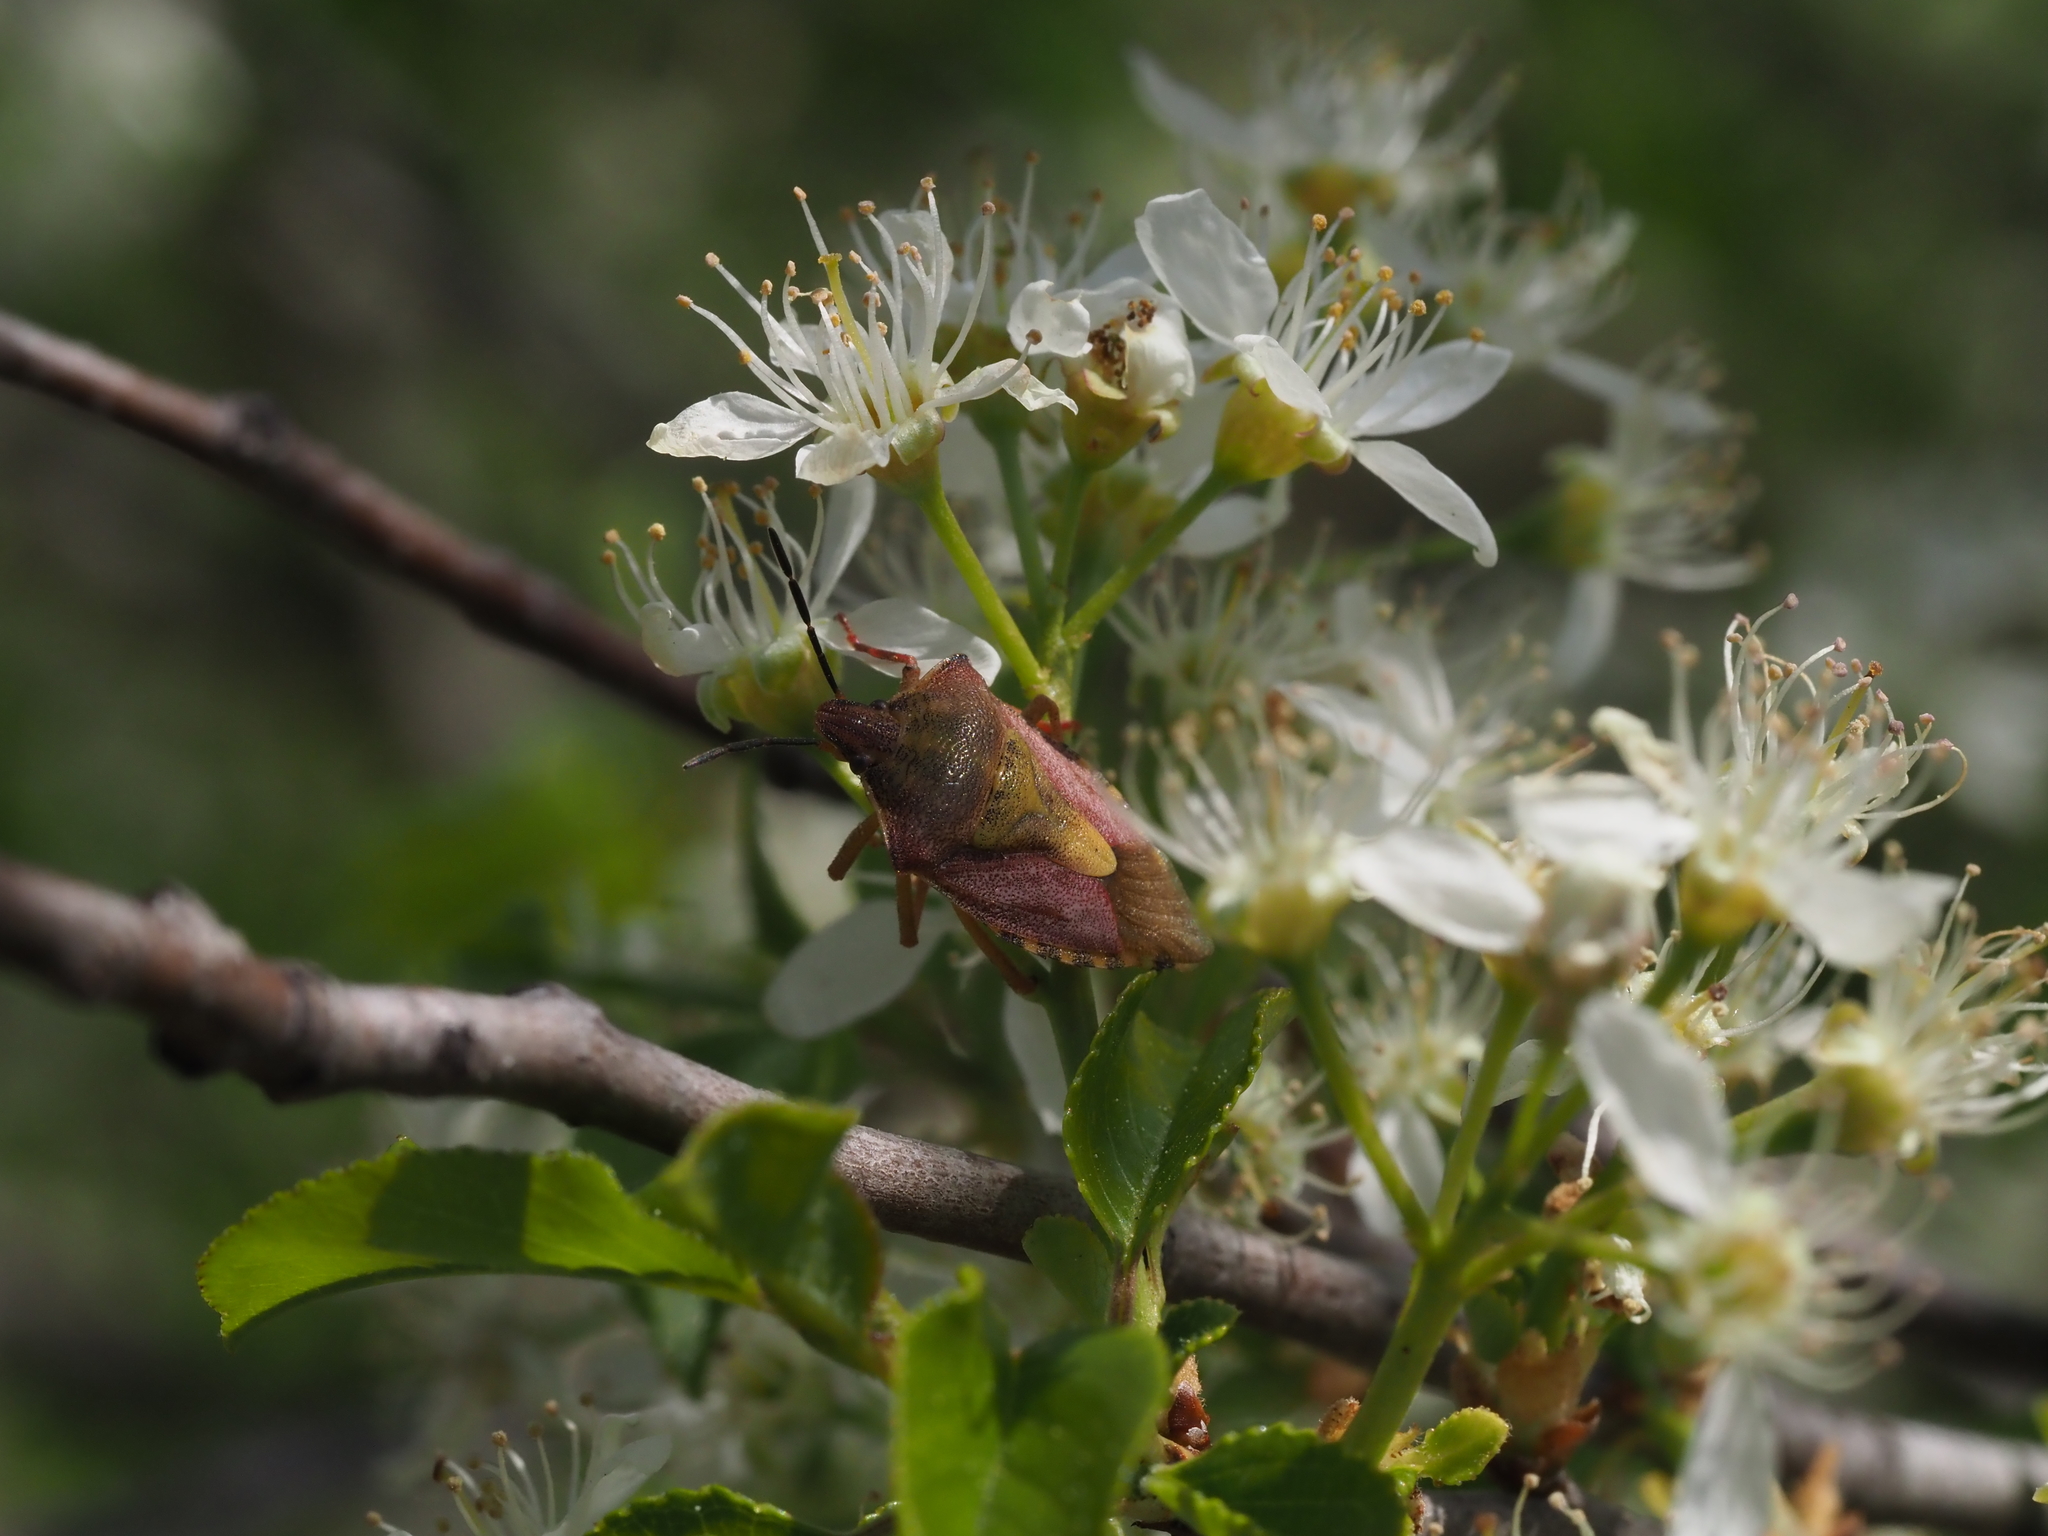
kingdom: Animalia
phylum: Arthropoda
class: Insecta
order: Hemiptera
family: Pentatomidae
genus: Carpocoris
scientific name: Carpocoris purpureipennis
